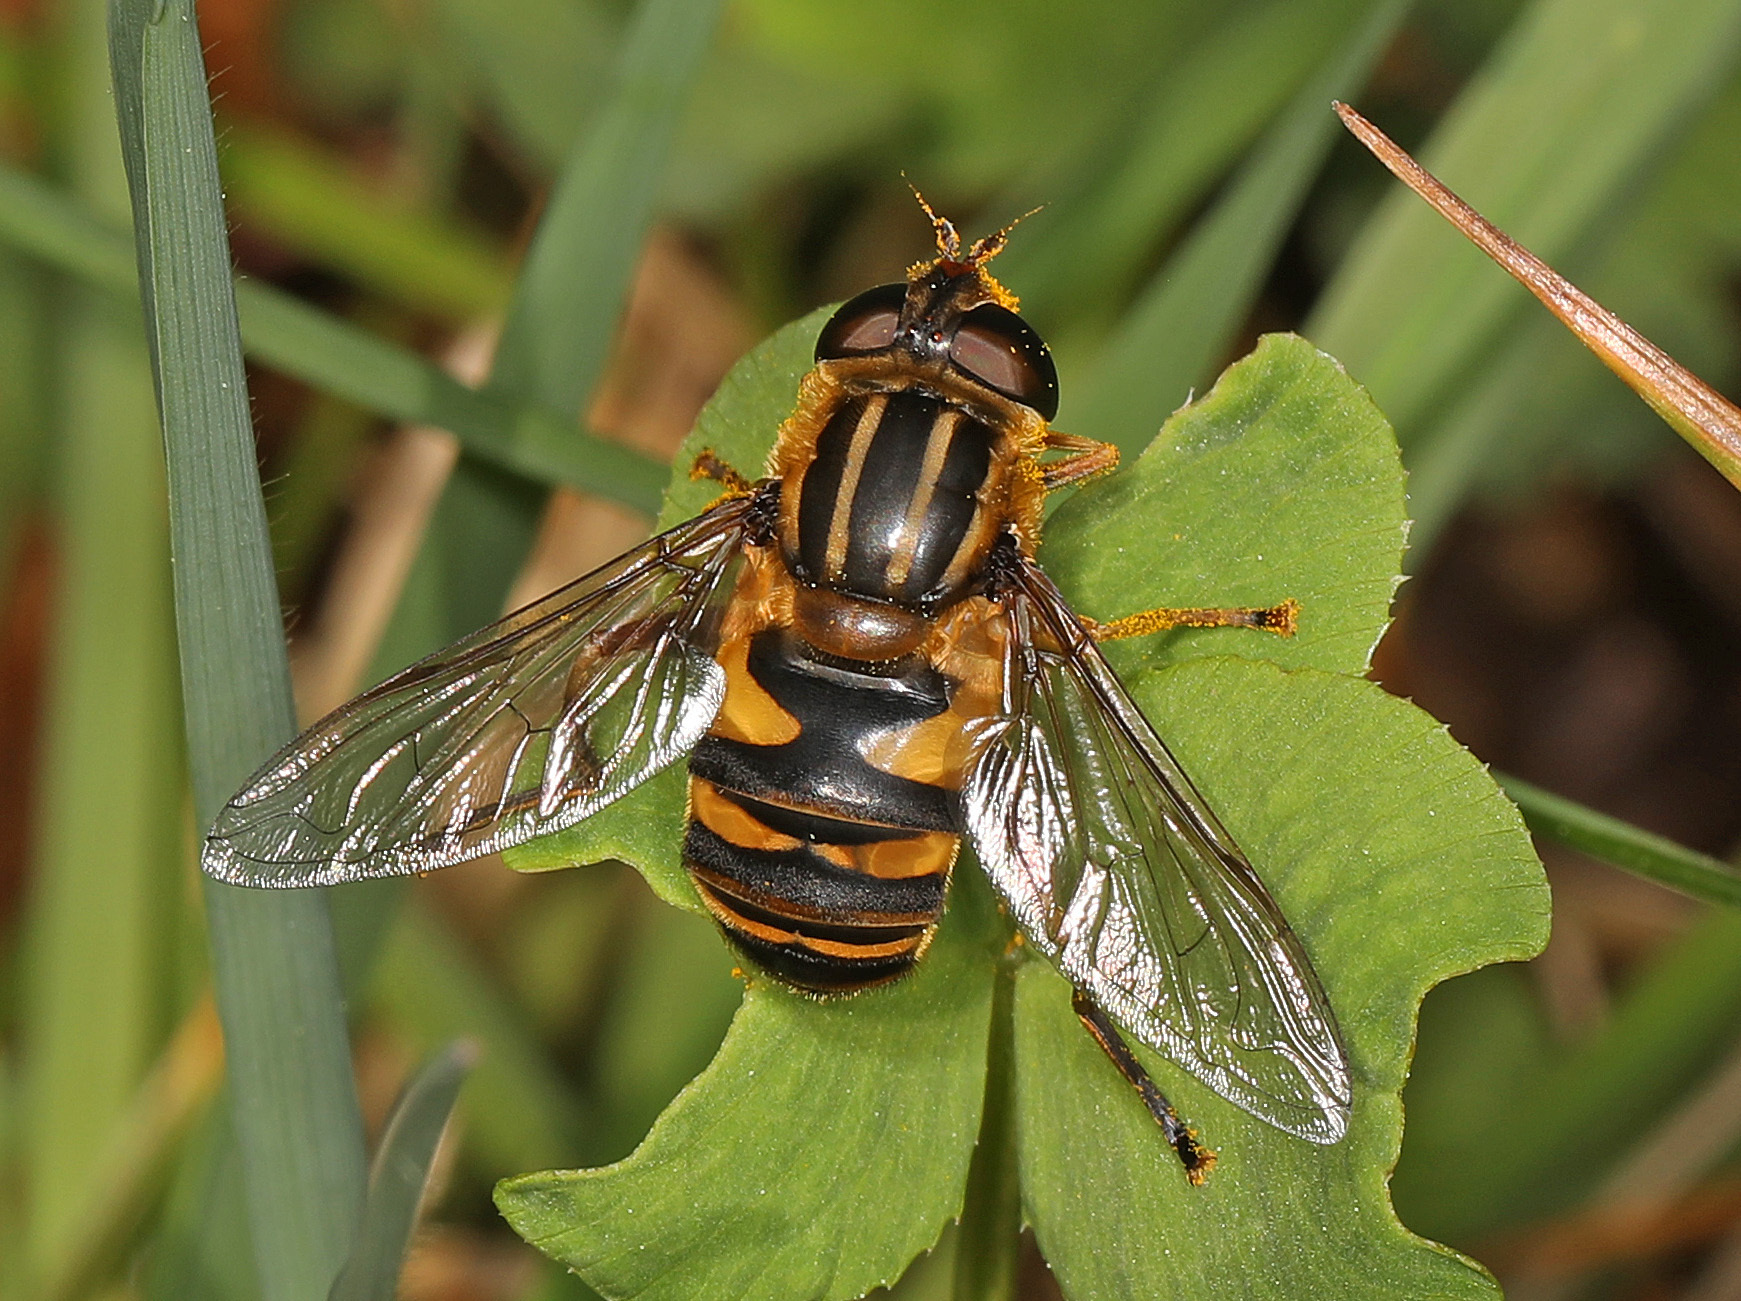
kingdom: Animalia
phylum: Arthropoda
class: Insecta
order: Diptera
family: Syrphidae
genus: Helophilus
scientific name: Helophilus fasciatus
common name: Narrow-headed marsh fly
